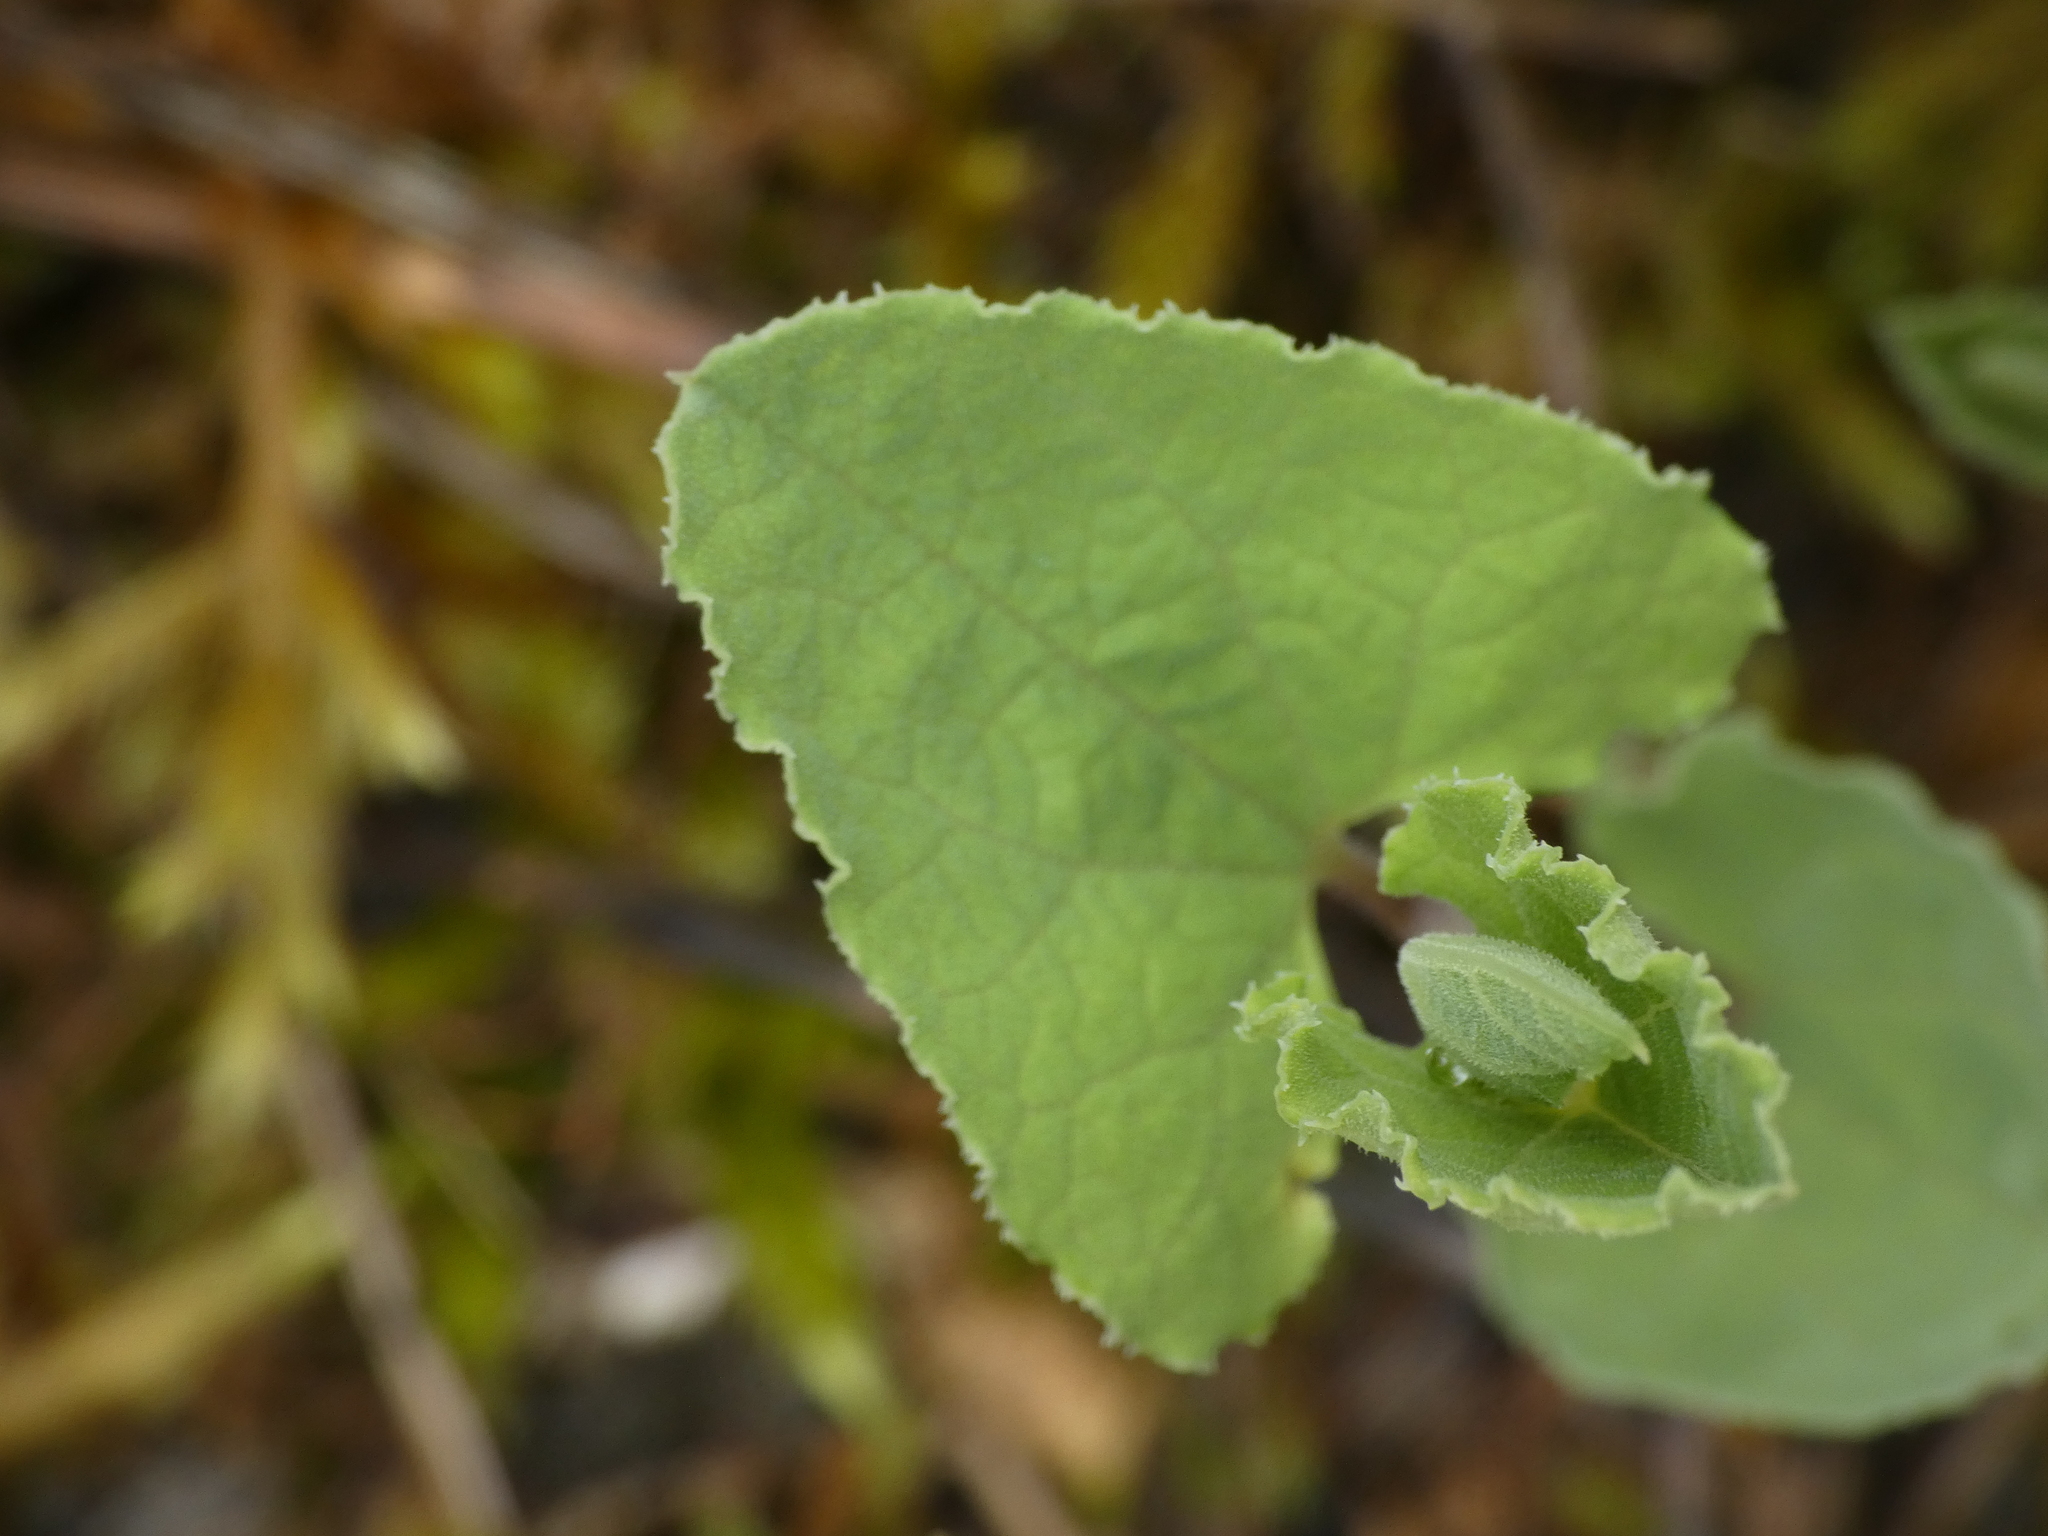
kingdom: Plantae
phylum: Tracheophyta
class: Magnoliopsida
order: Piperales
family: Aristolochiaceae
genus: Aristolochia
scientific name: Aristolochia pistolochia
